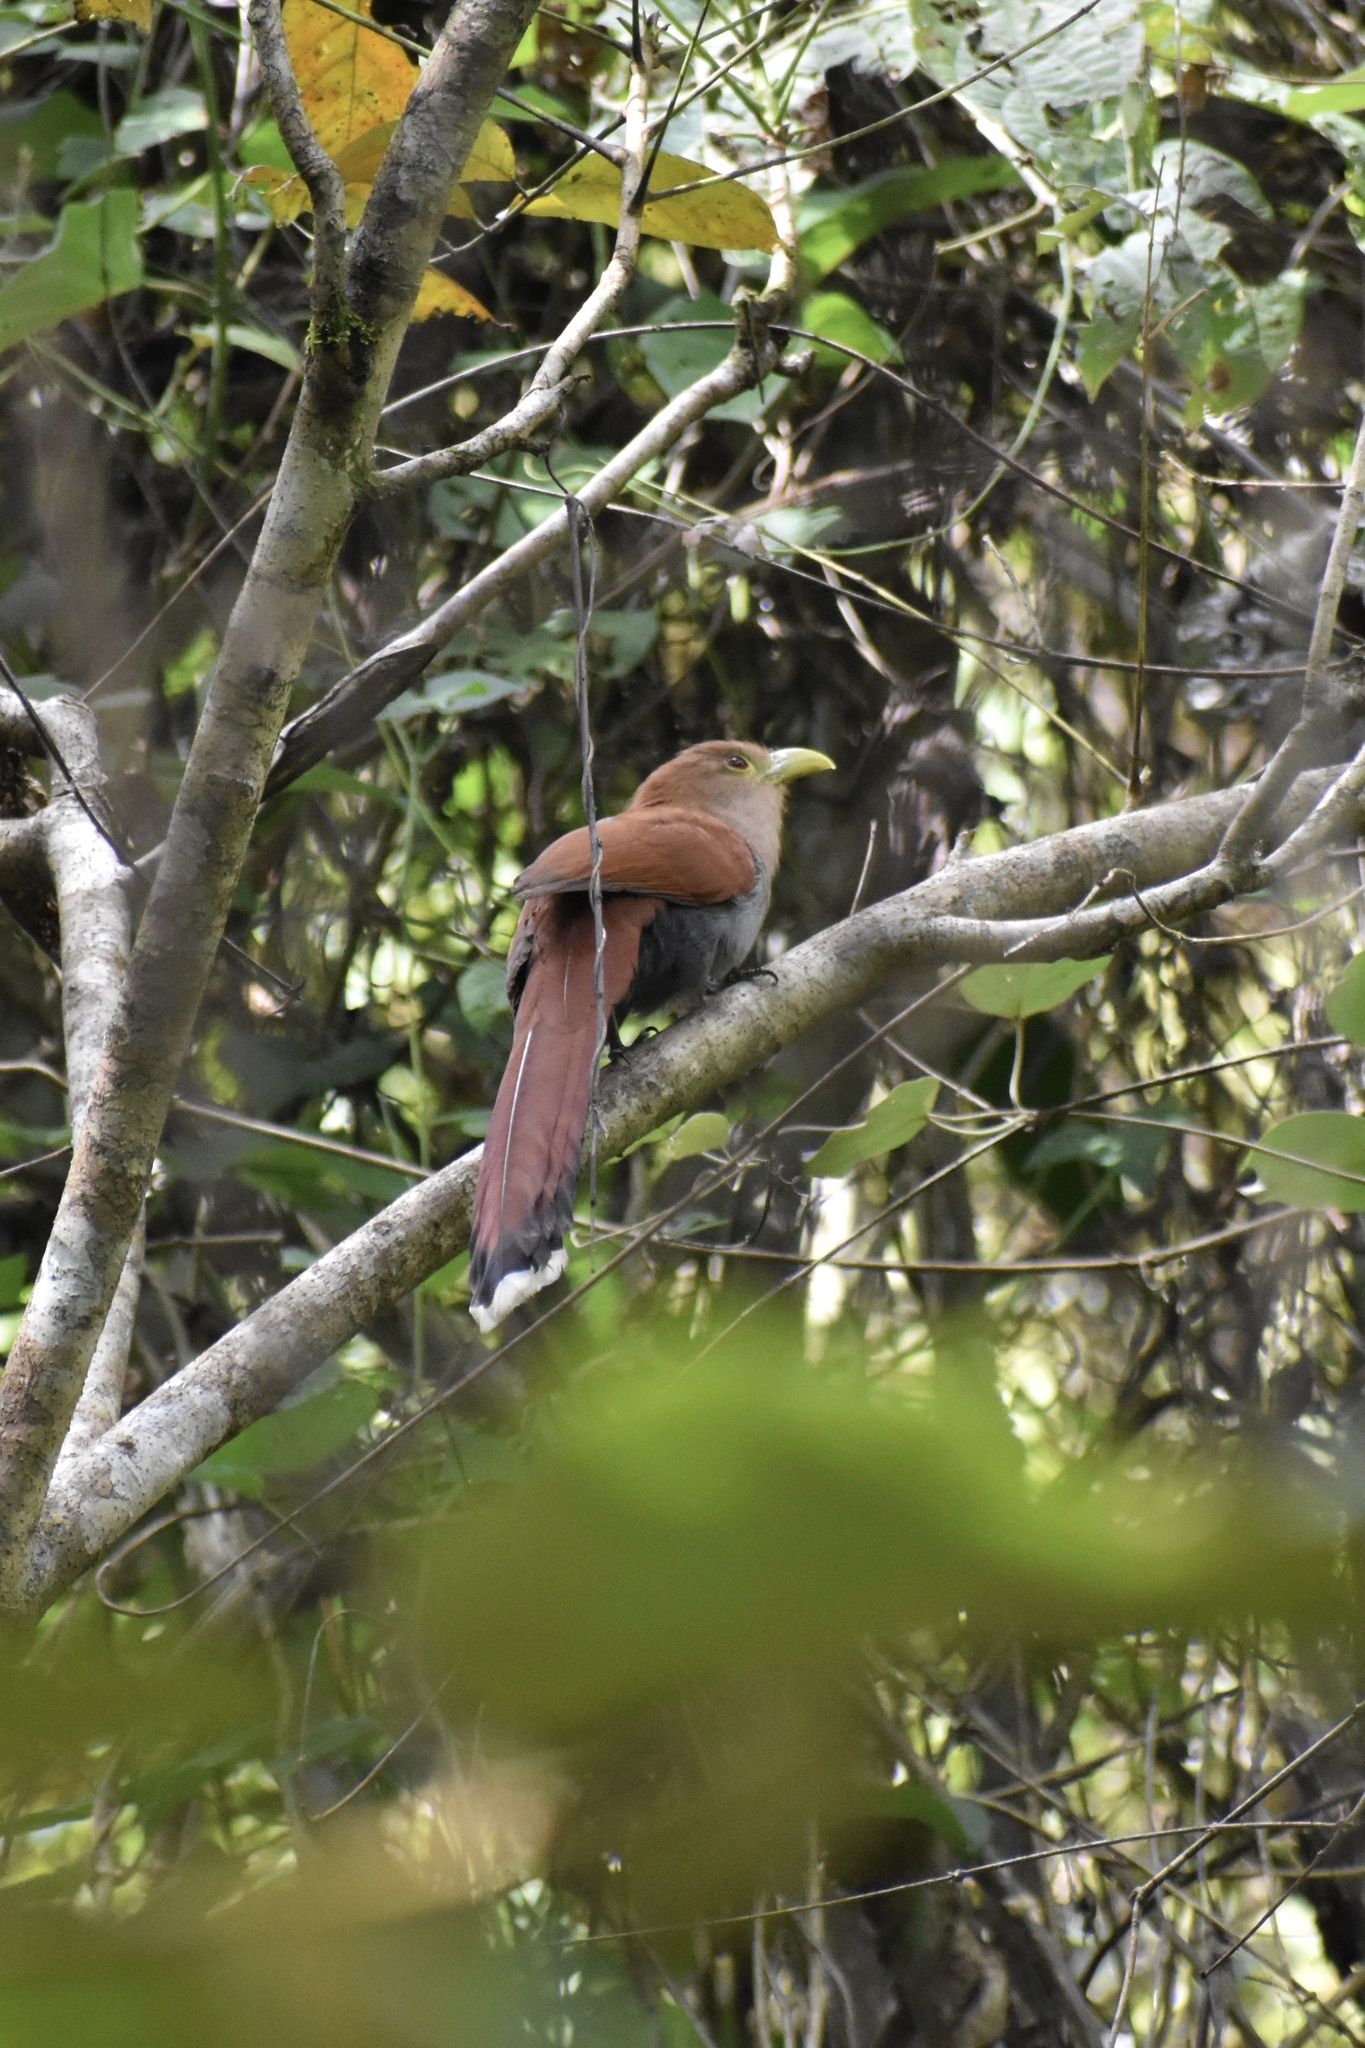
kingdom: Animalia
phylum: Chordata
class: Aves
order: Cuculiformes
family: Cuculidae
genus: Piaya
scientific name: Piaya cayana
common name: Squirrel cuckoo
